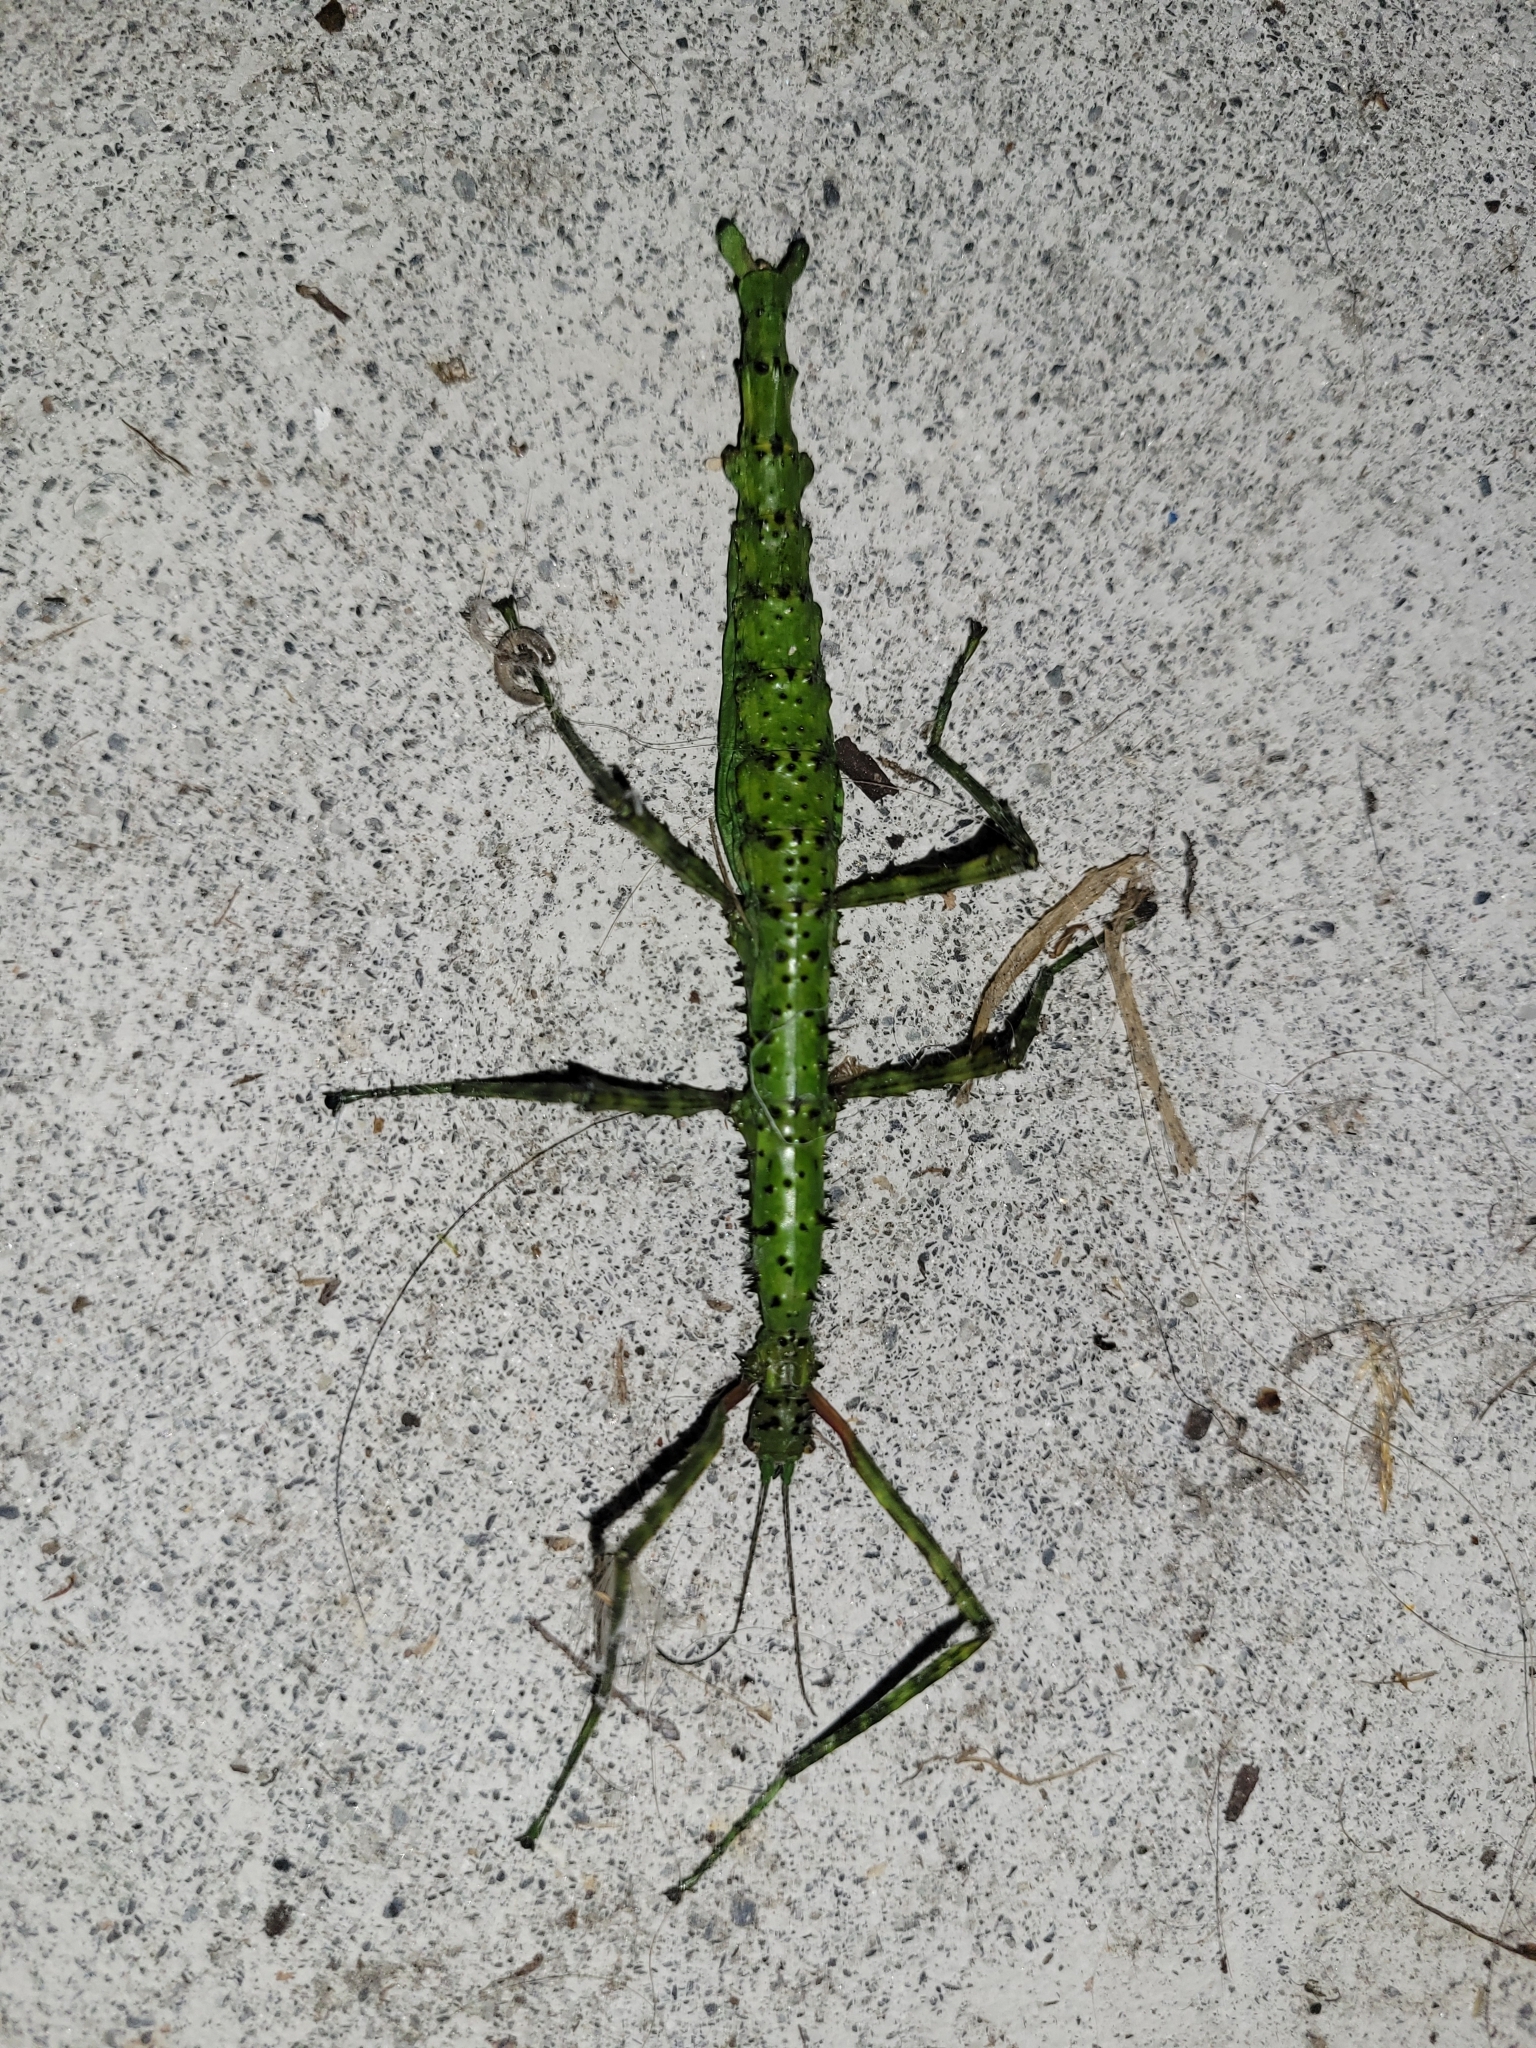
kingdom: Animalia
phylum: Arthropoda
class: Insecta
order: Phasmida
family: Phasmatidae
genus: Acanthoxyla
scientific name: Acanthoxyla prasina
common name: Black-spined stick insect
